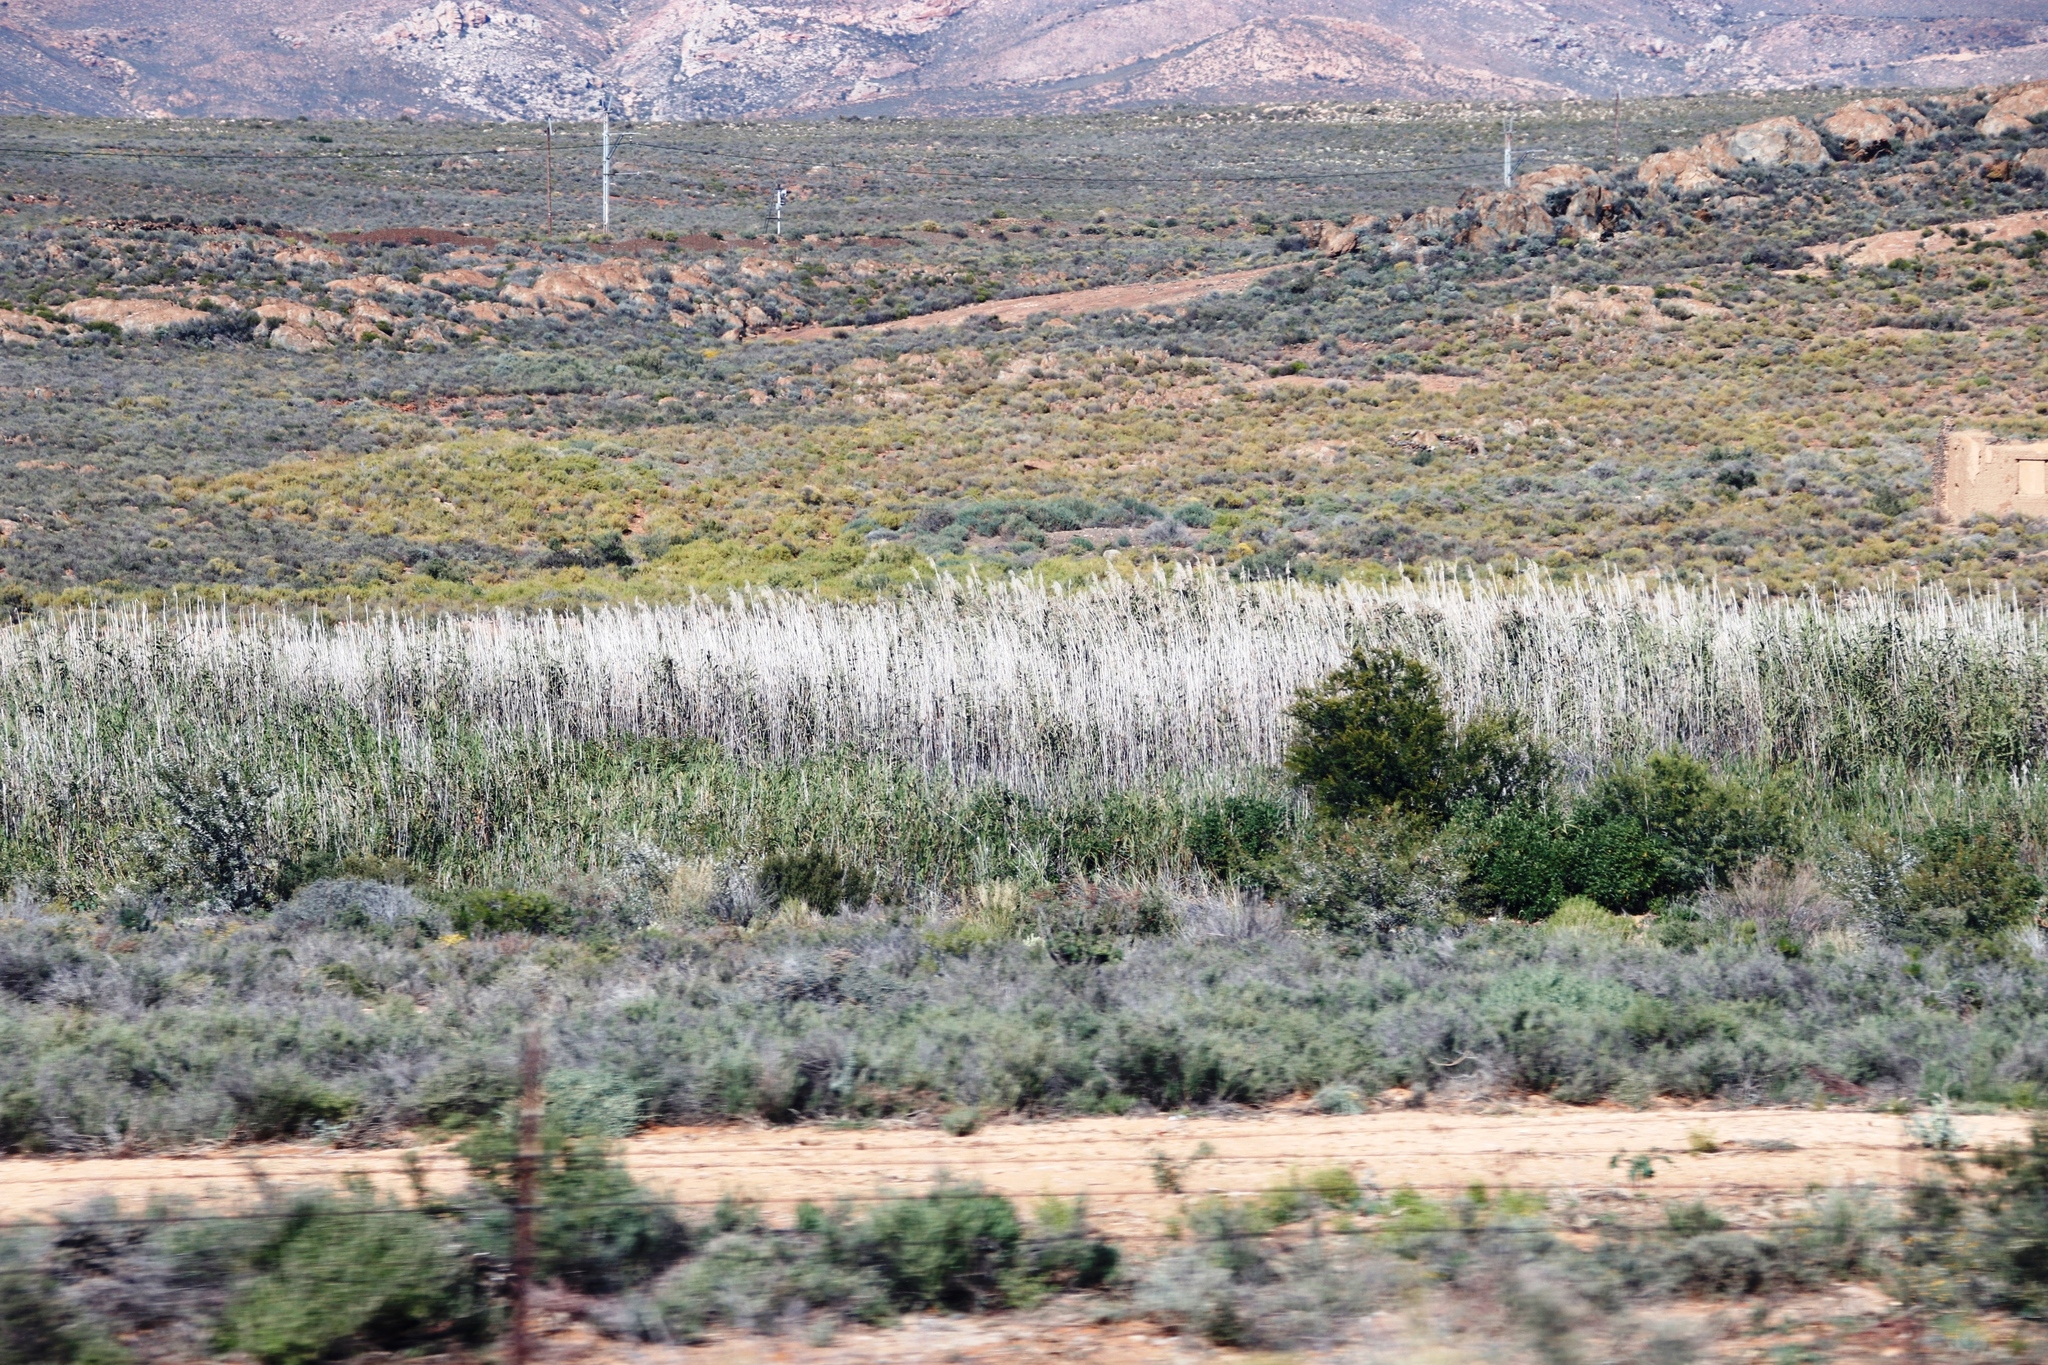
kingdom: Plantae
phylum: Tracheophyta
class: Liliopsida
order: Poales
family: Poaceae
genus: Phragmites
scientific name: Phragmites australis
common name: Common reed
